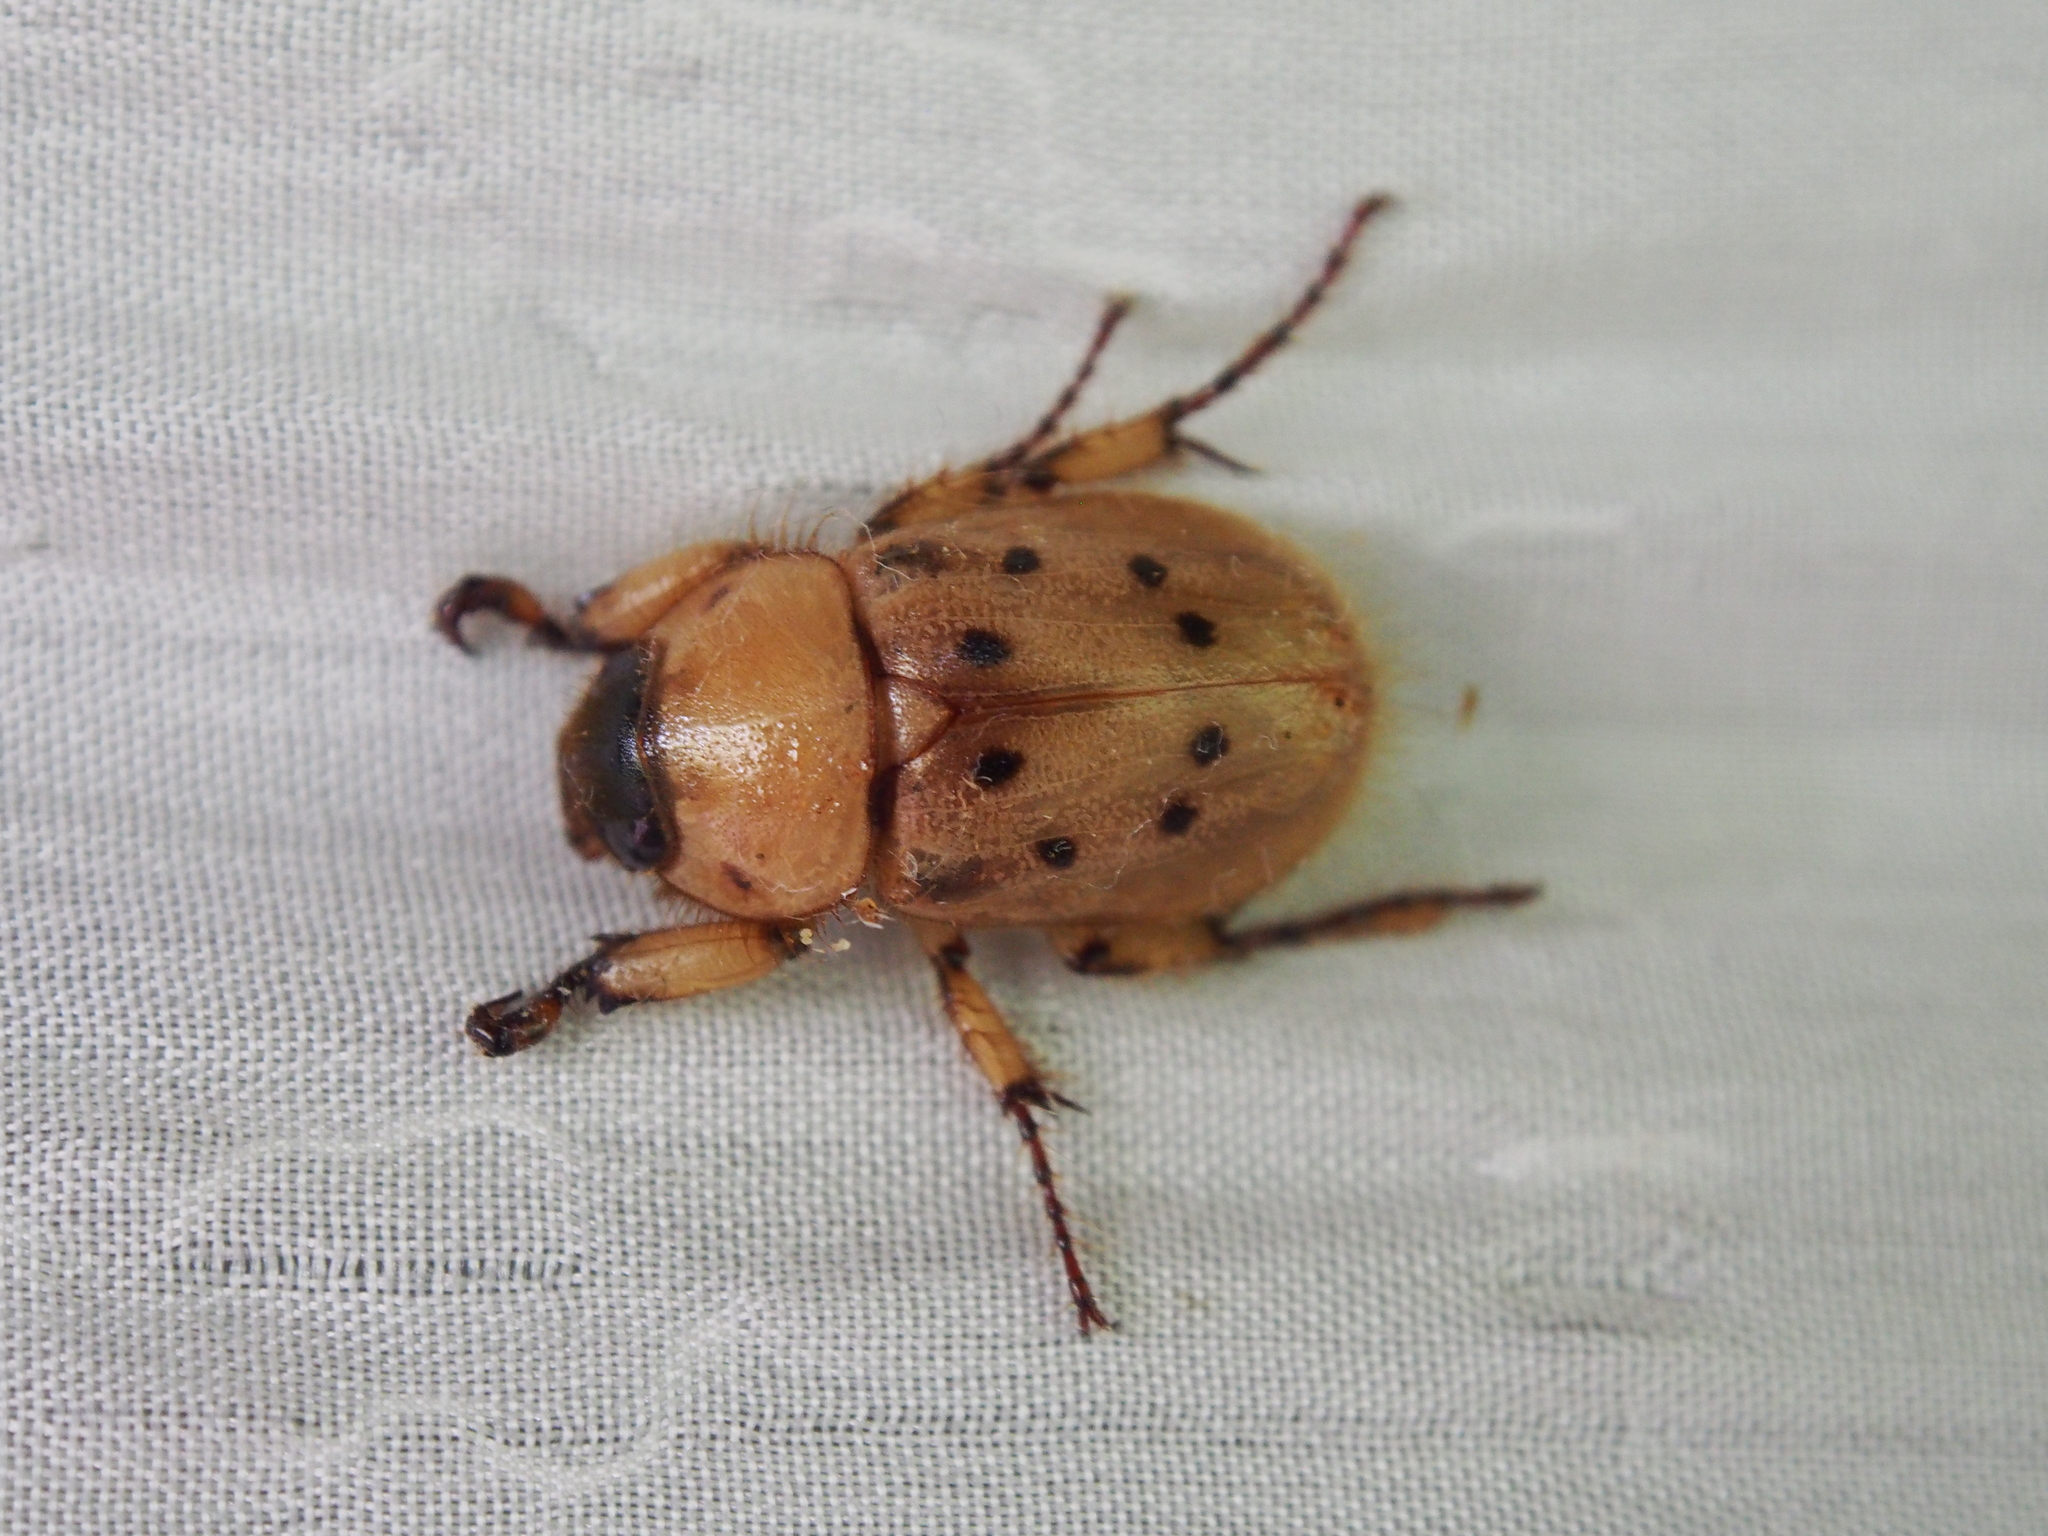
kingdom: Animalia
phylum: Arthropoda
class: Insecta
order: Coleoptera
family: Scarabaeidae
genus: Cyclocephala
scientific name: Cyclocephala brittoni
